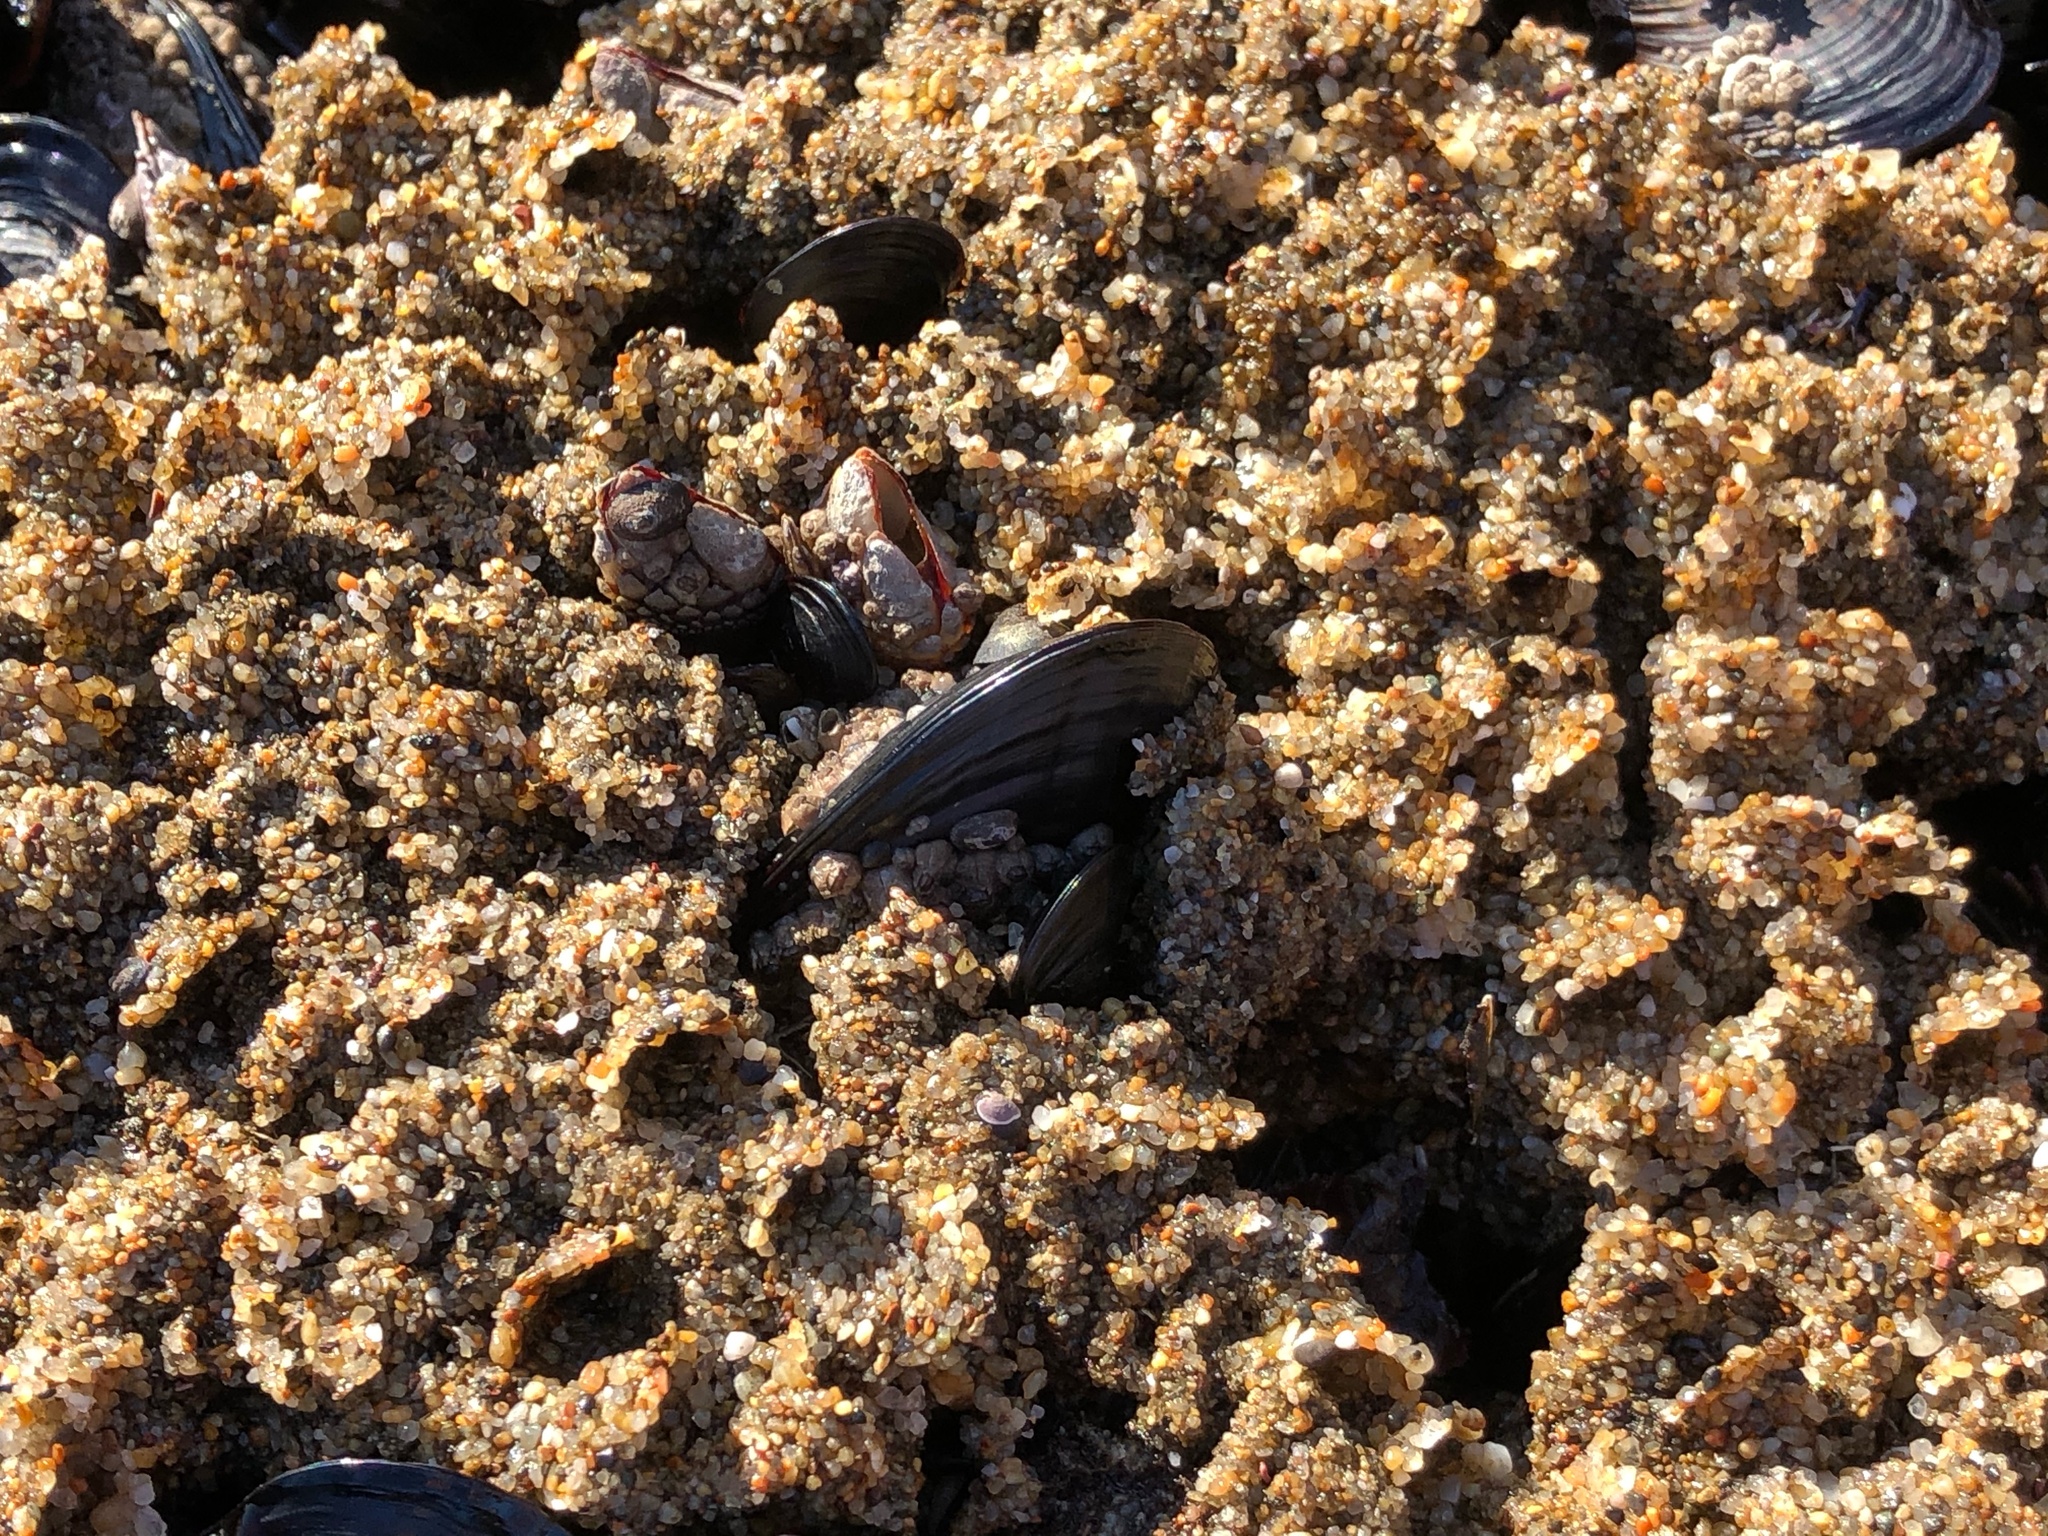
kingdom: Animalia
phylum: Annelida
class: Polychaeta
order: Sabellida
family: Sabellariidae
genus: Phragmatopoma
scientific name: Phragmatopoma californica
